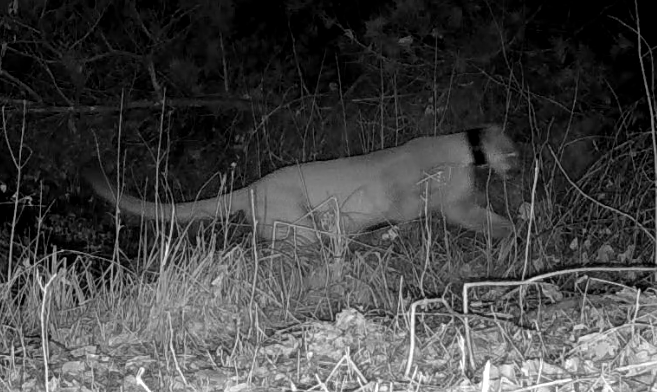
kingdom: Animalia
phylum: Chordata
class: Mammalia
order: Carnivora
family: Felidae
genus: Puma
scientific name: Puma concolor
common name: Puma
